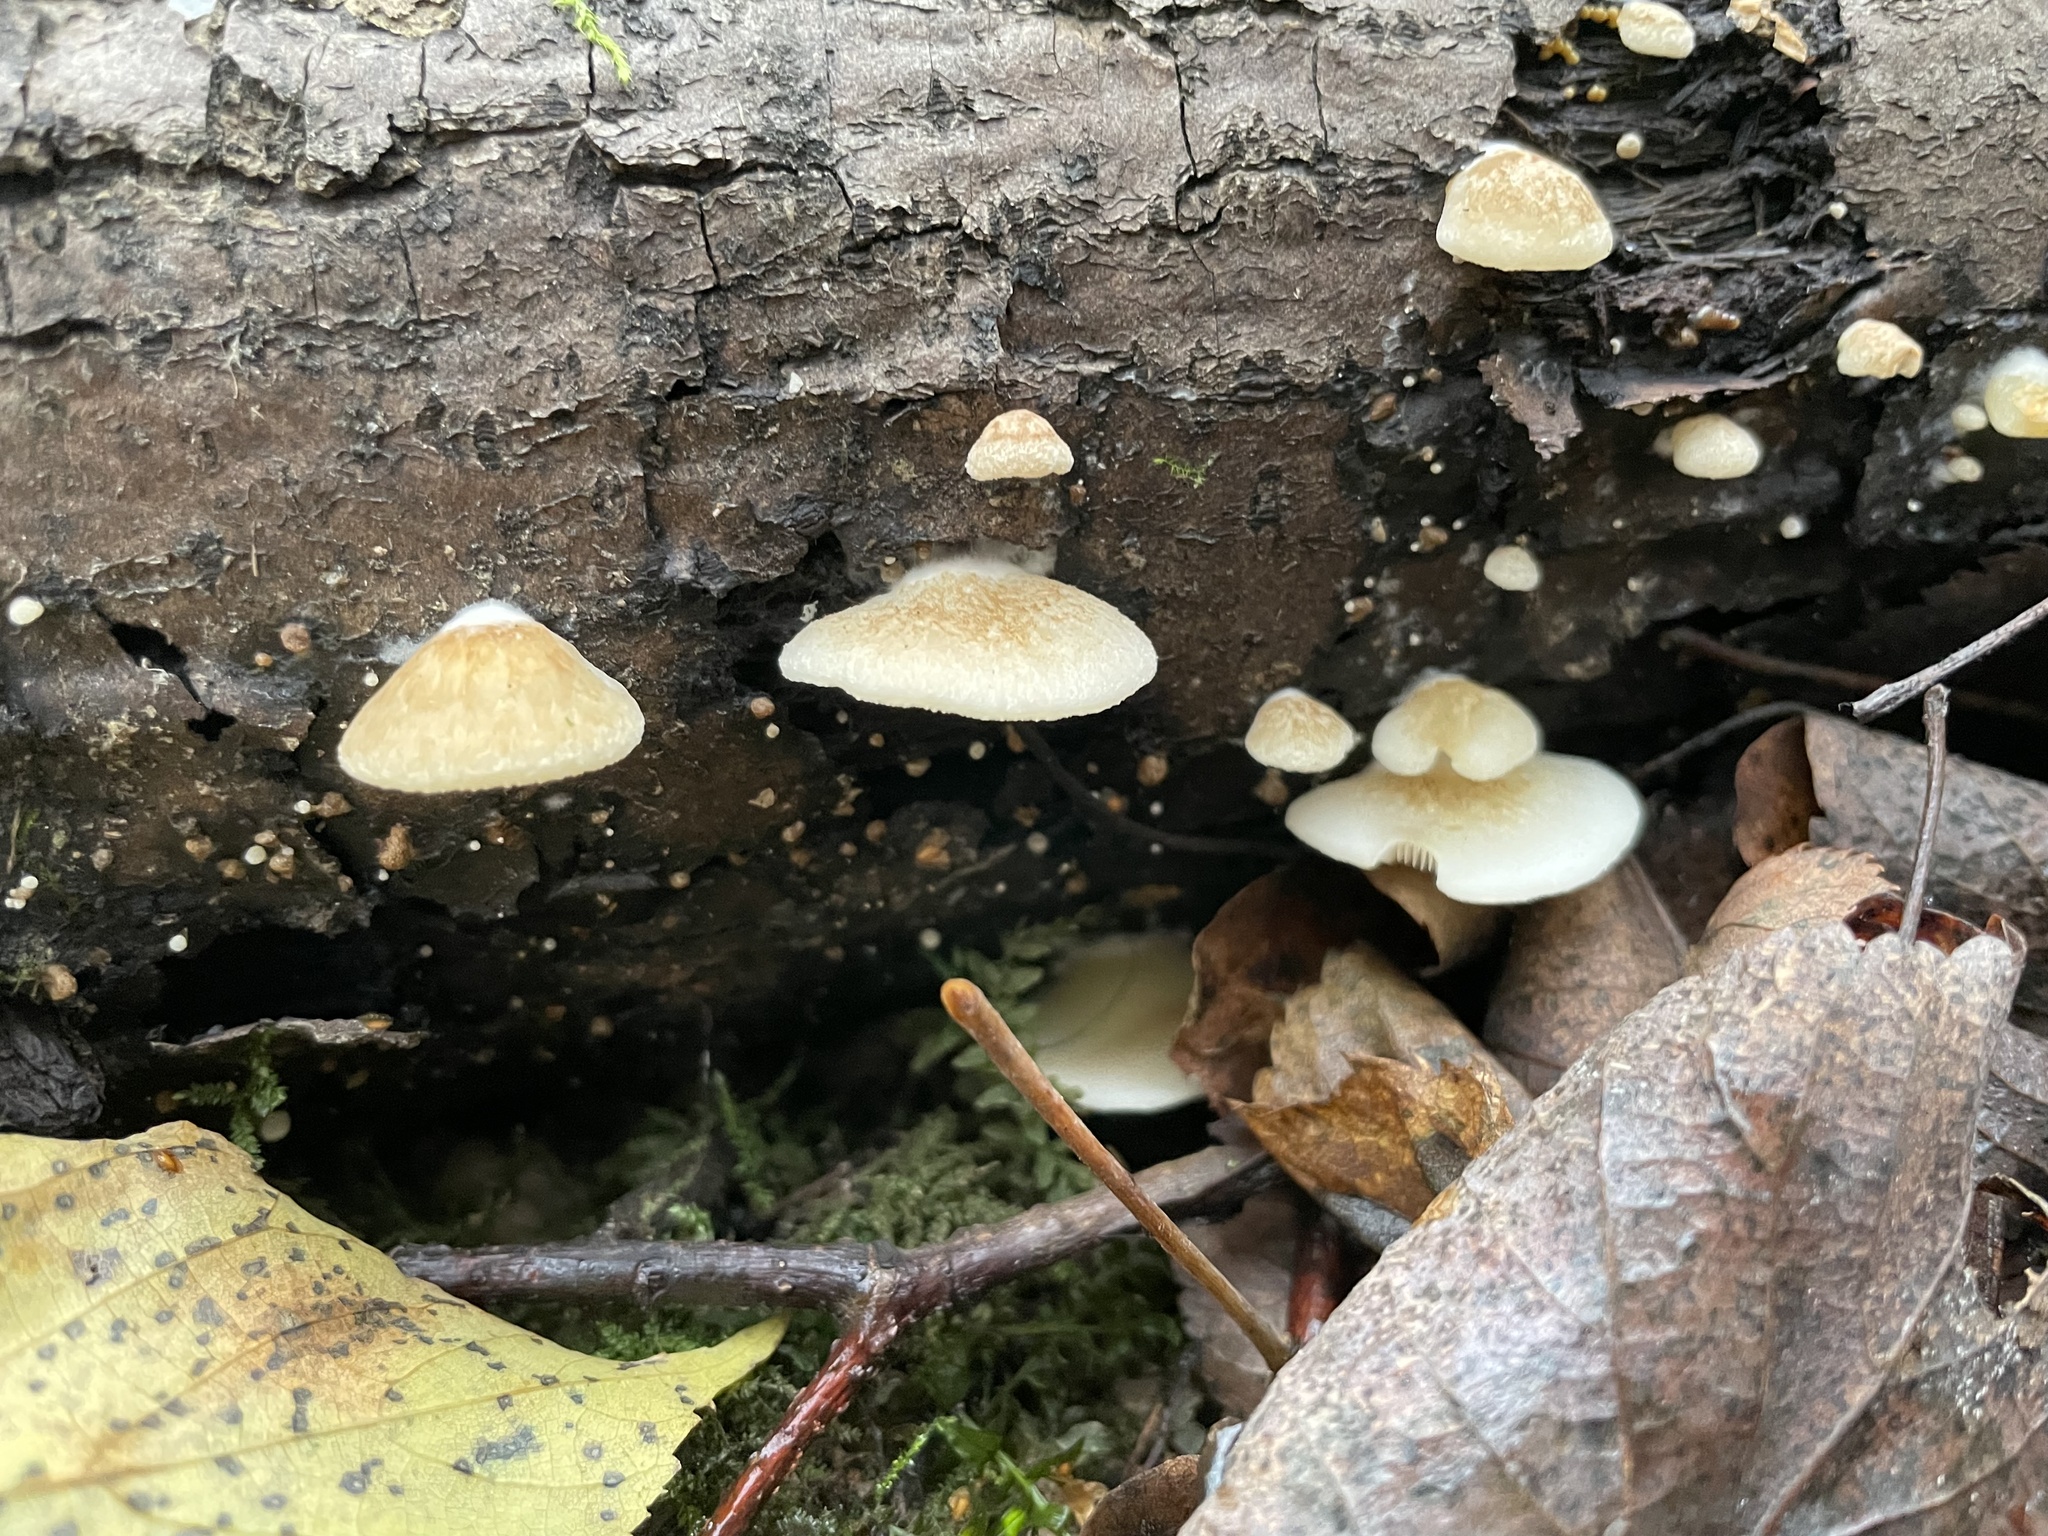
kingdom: Fungi
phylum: Basidiomycota
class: Agaricomycetes
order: Agaricales
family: Crepidotaceae
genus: Crepidotus
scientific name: Crepidotus calolepis
